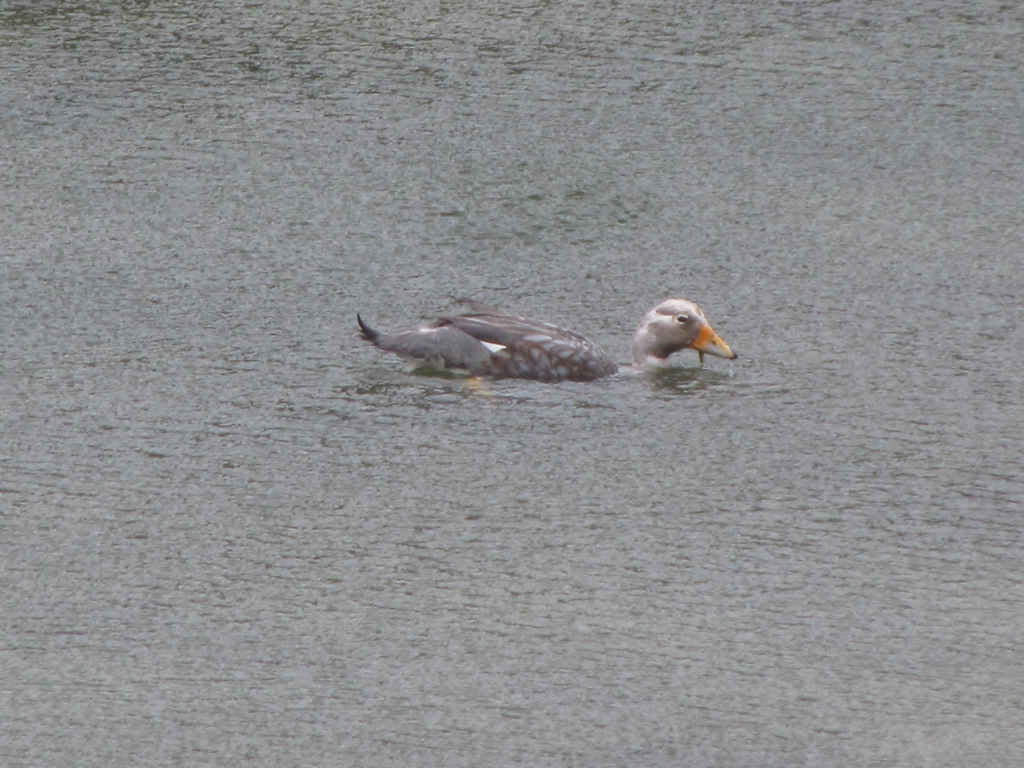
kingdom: Animalia
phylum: Chordata
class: Aves
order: Anseriformes
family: Anatidae
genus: Tachyeres
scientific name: Tachyeres pteneres
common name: Fuegian steamer duck
